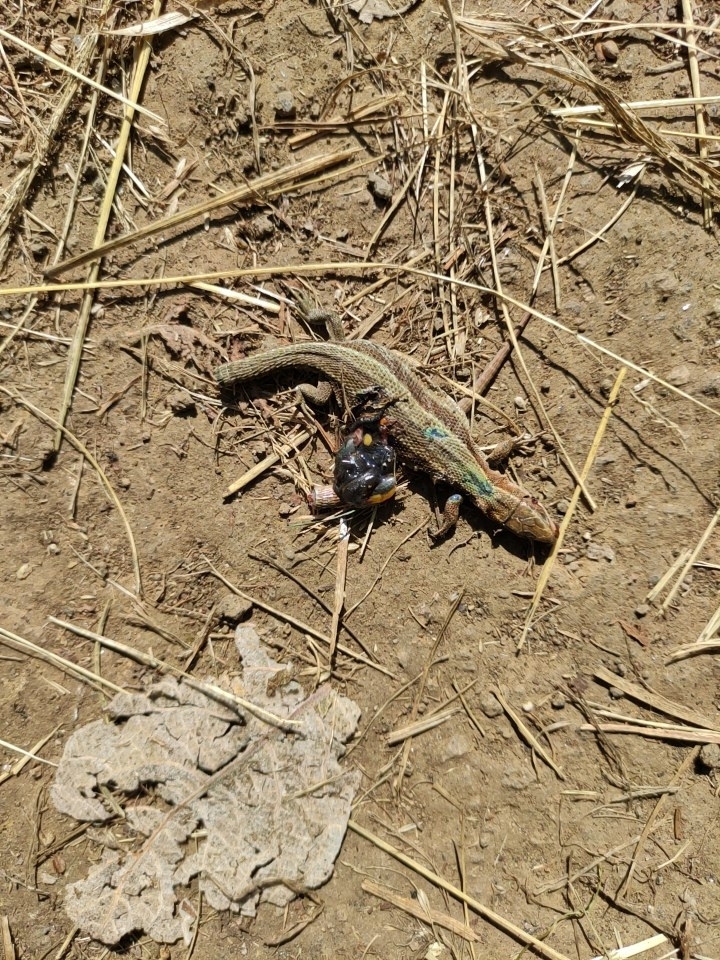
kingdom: Animalia
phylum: Chordata
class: Squamata
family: Lacertidae
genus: Zootoca
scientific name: Zootoca vivipara
